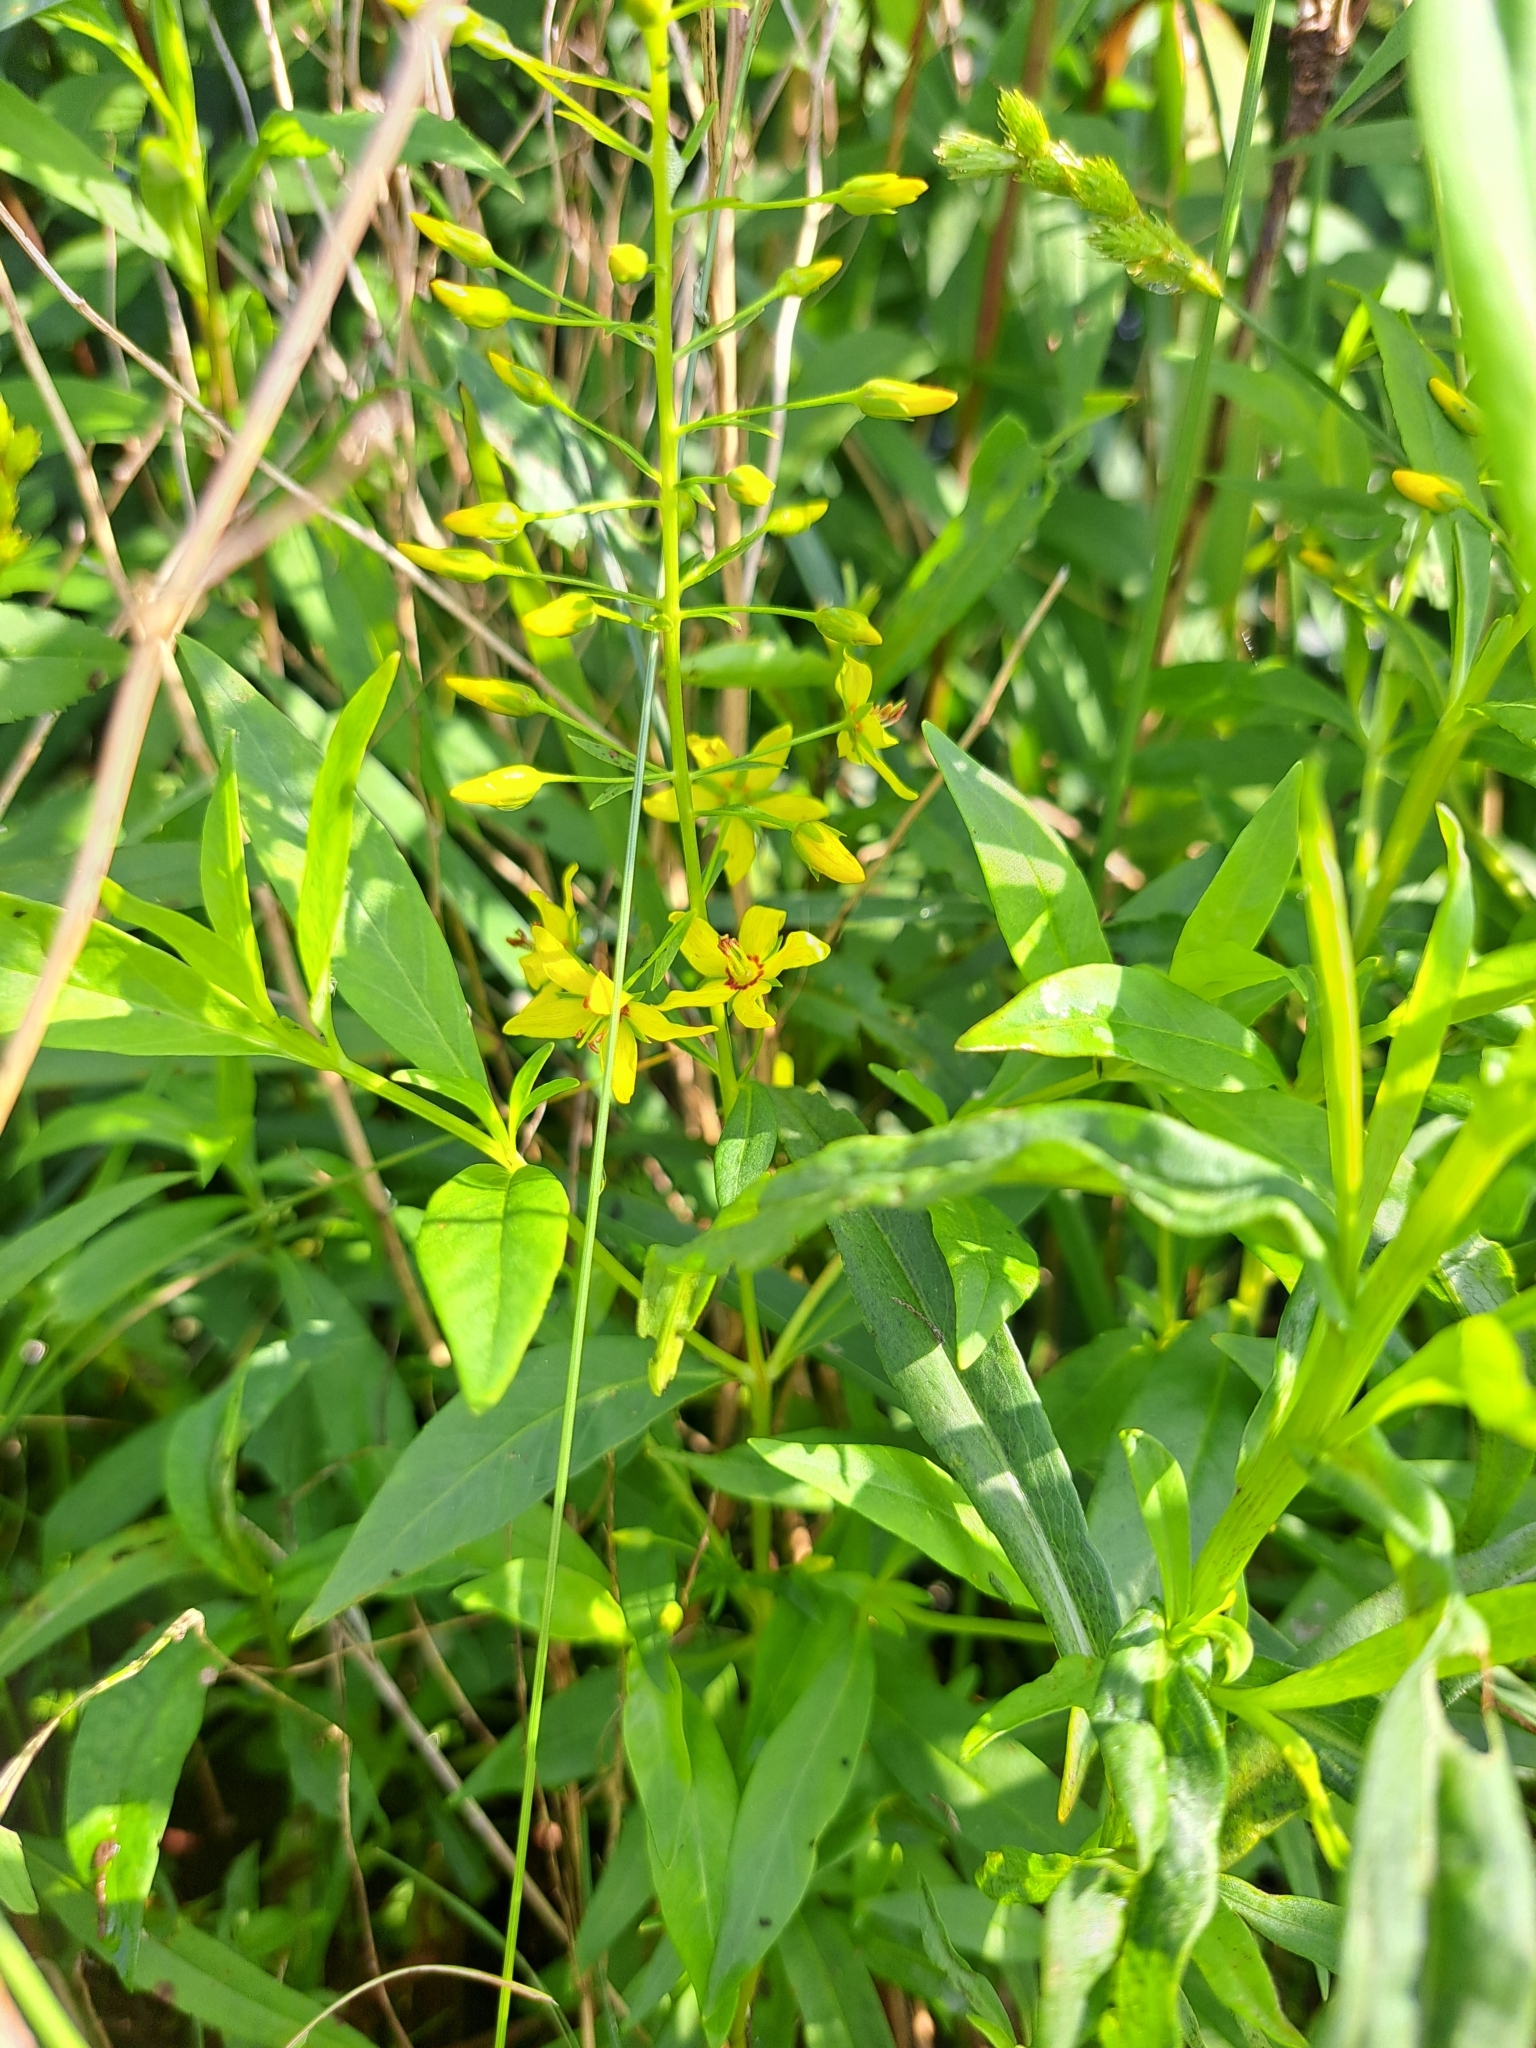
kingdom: Plantae
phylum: Tracheophyta
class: Magnoliopsida
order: Ericales
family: Primulaceae
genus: Lysimachia
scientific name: Lysimachia terrestris
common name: Lake loosestrife
